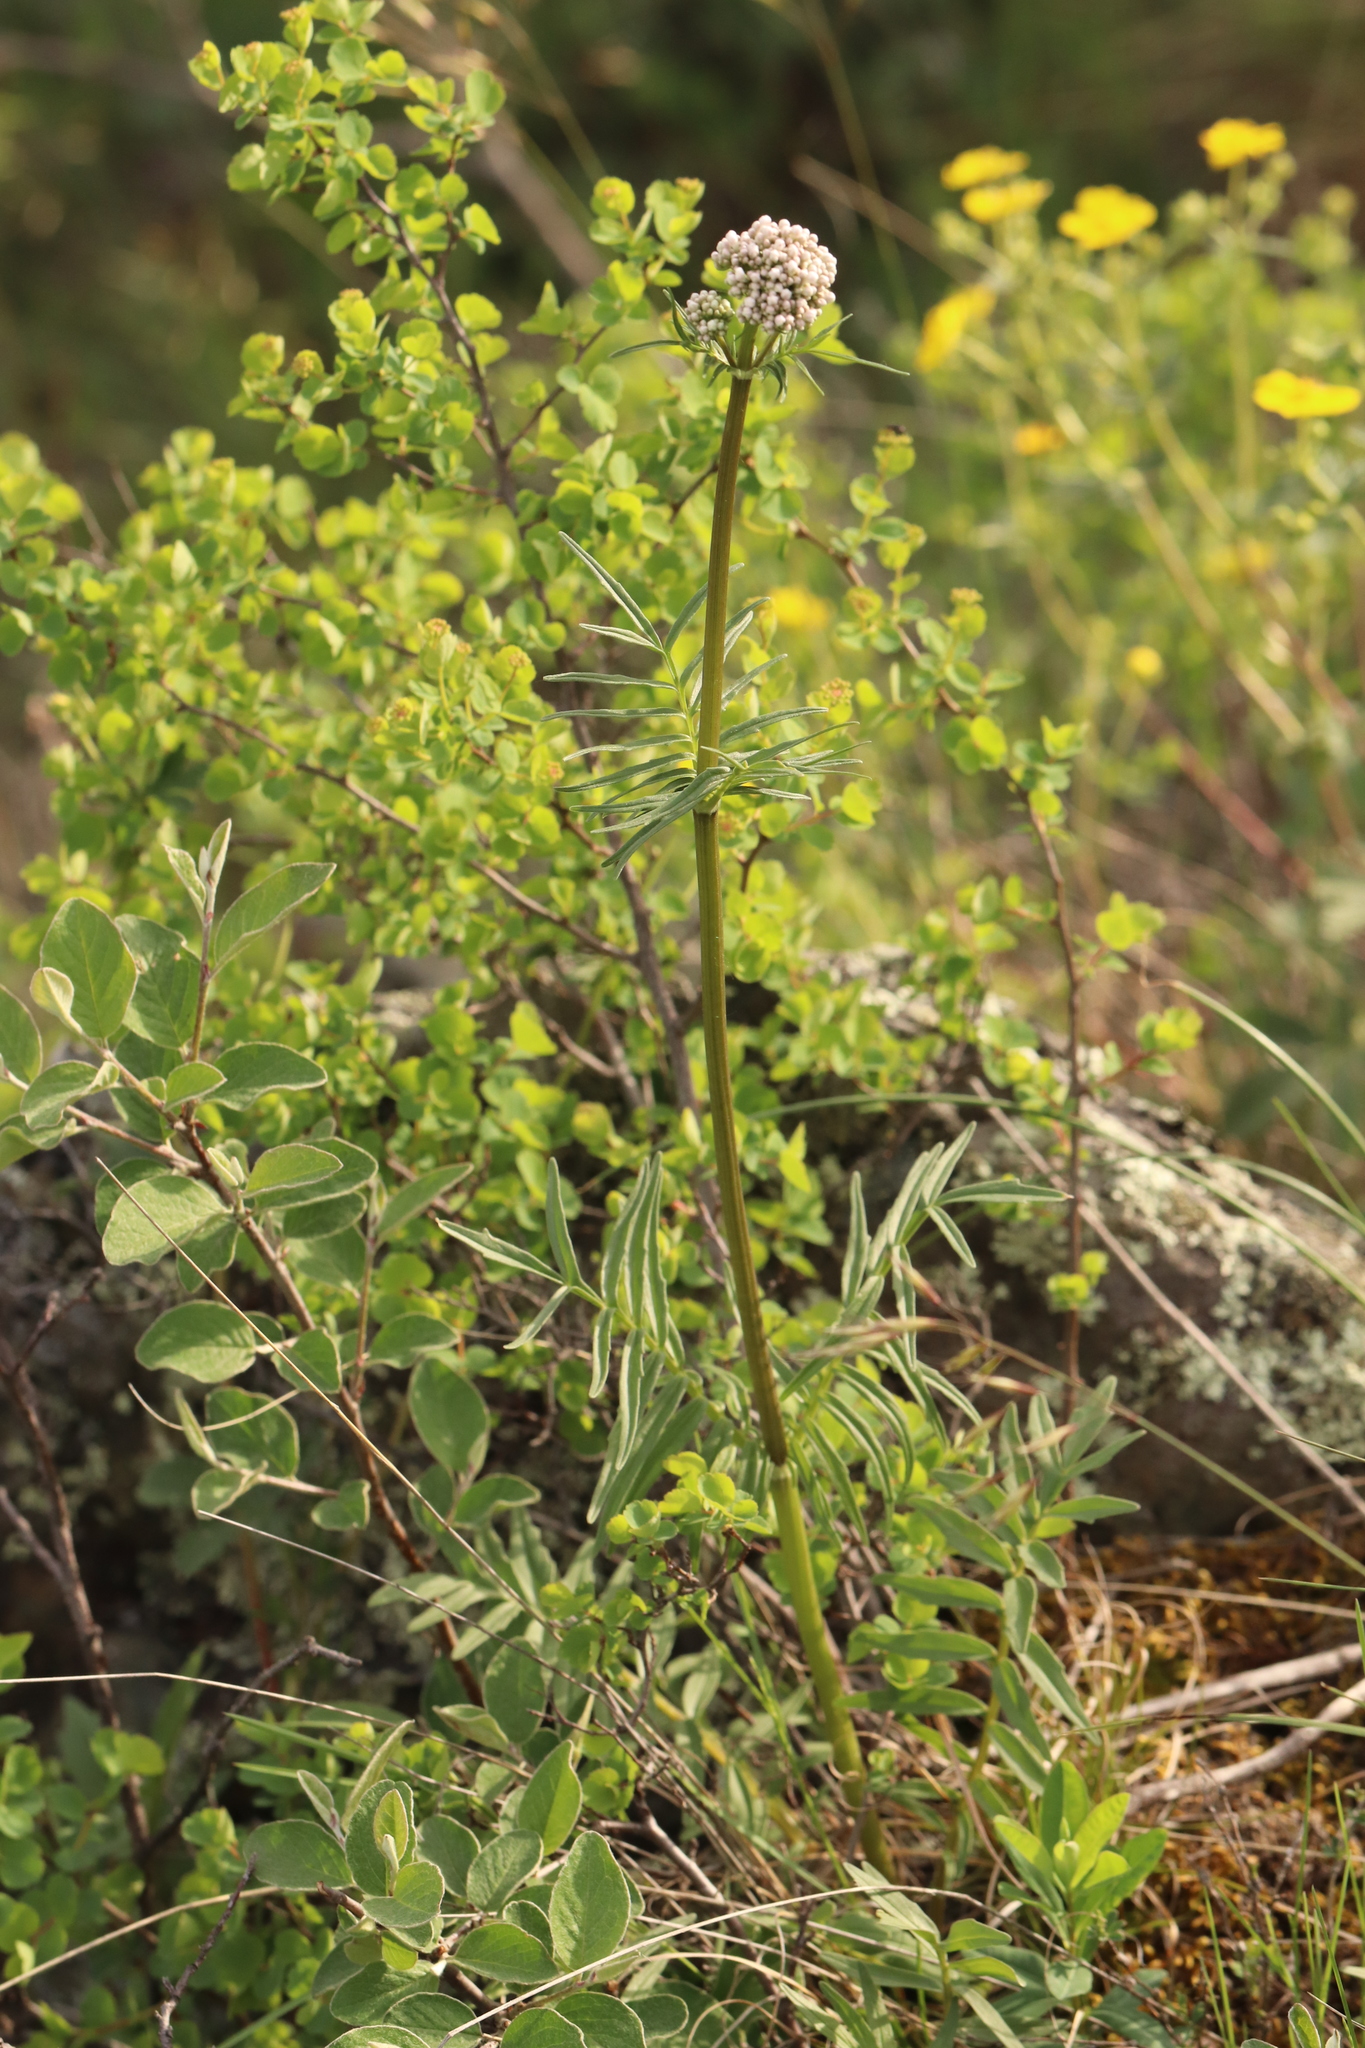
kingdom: Plantae
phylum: Tracheophyta
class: Magnoliopsida
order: Dipsacales
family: Caprifoliaceae
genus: Valeriana
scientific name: Valeriana rossica
